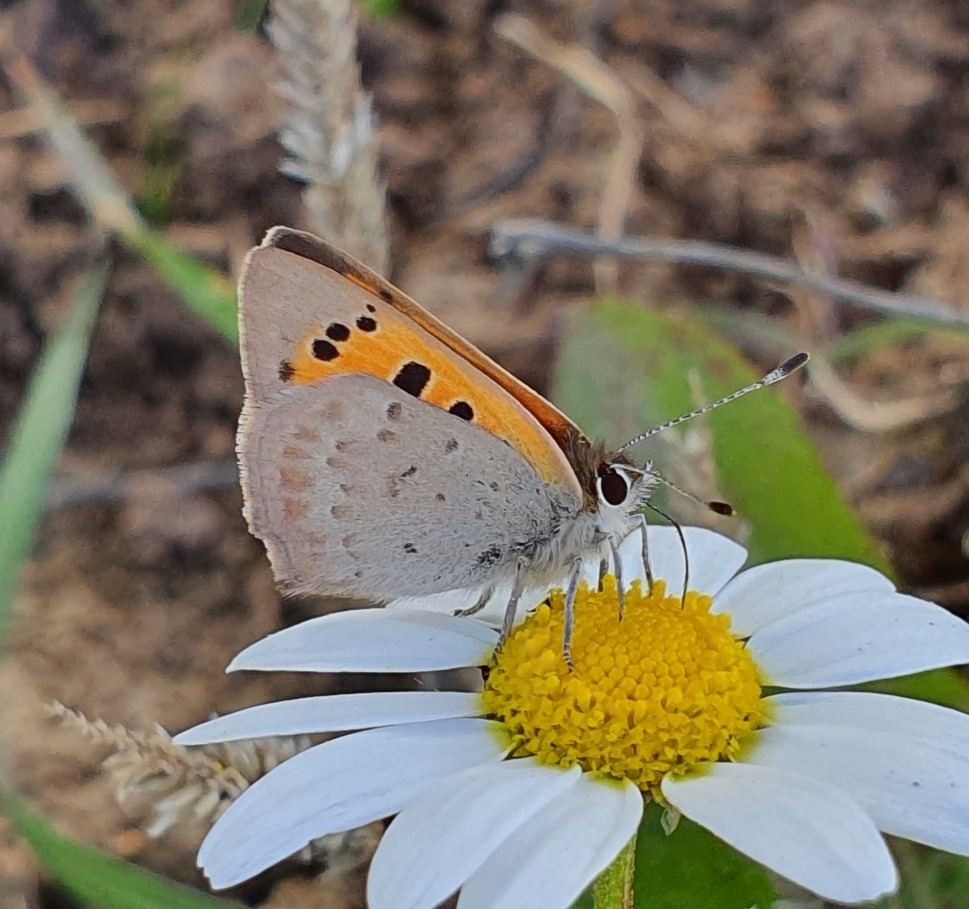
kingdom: Animalia
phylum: Arthropoda
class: Insecta
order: Lepidoptera
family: Lycaenidae
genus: Lycaena
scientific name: Lycaena phlaeas
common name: Small copper
